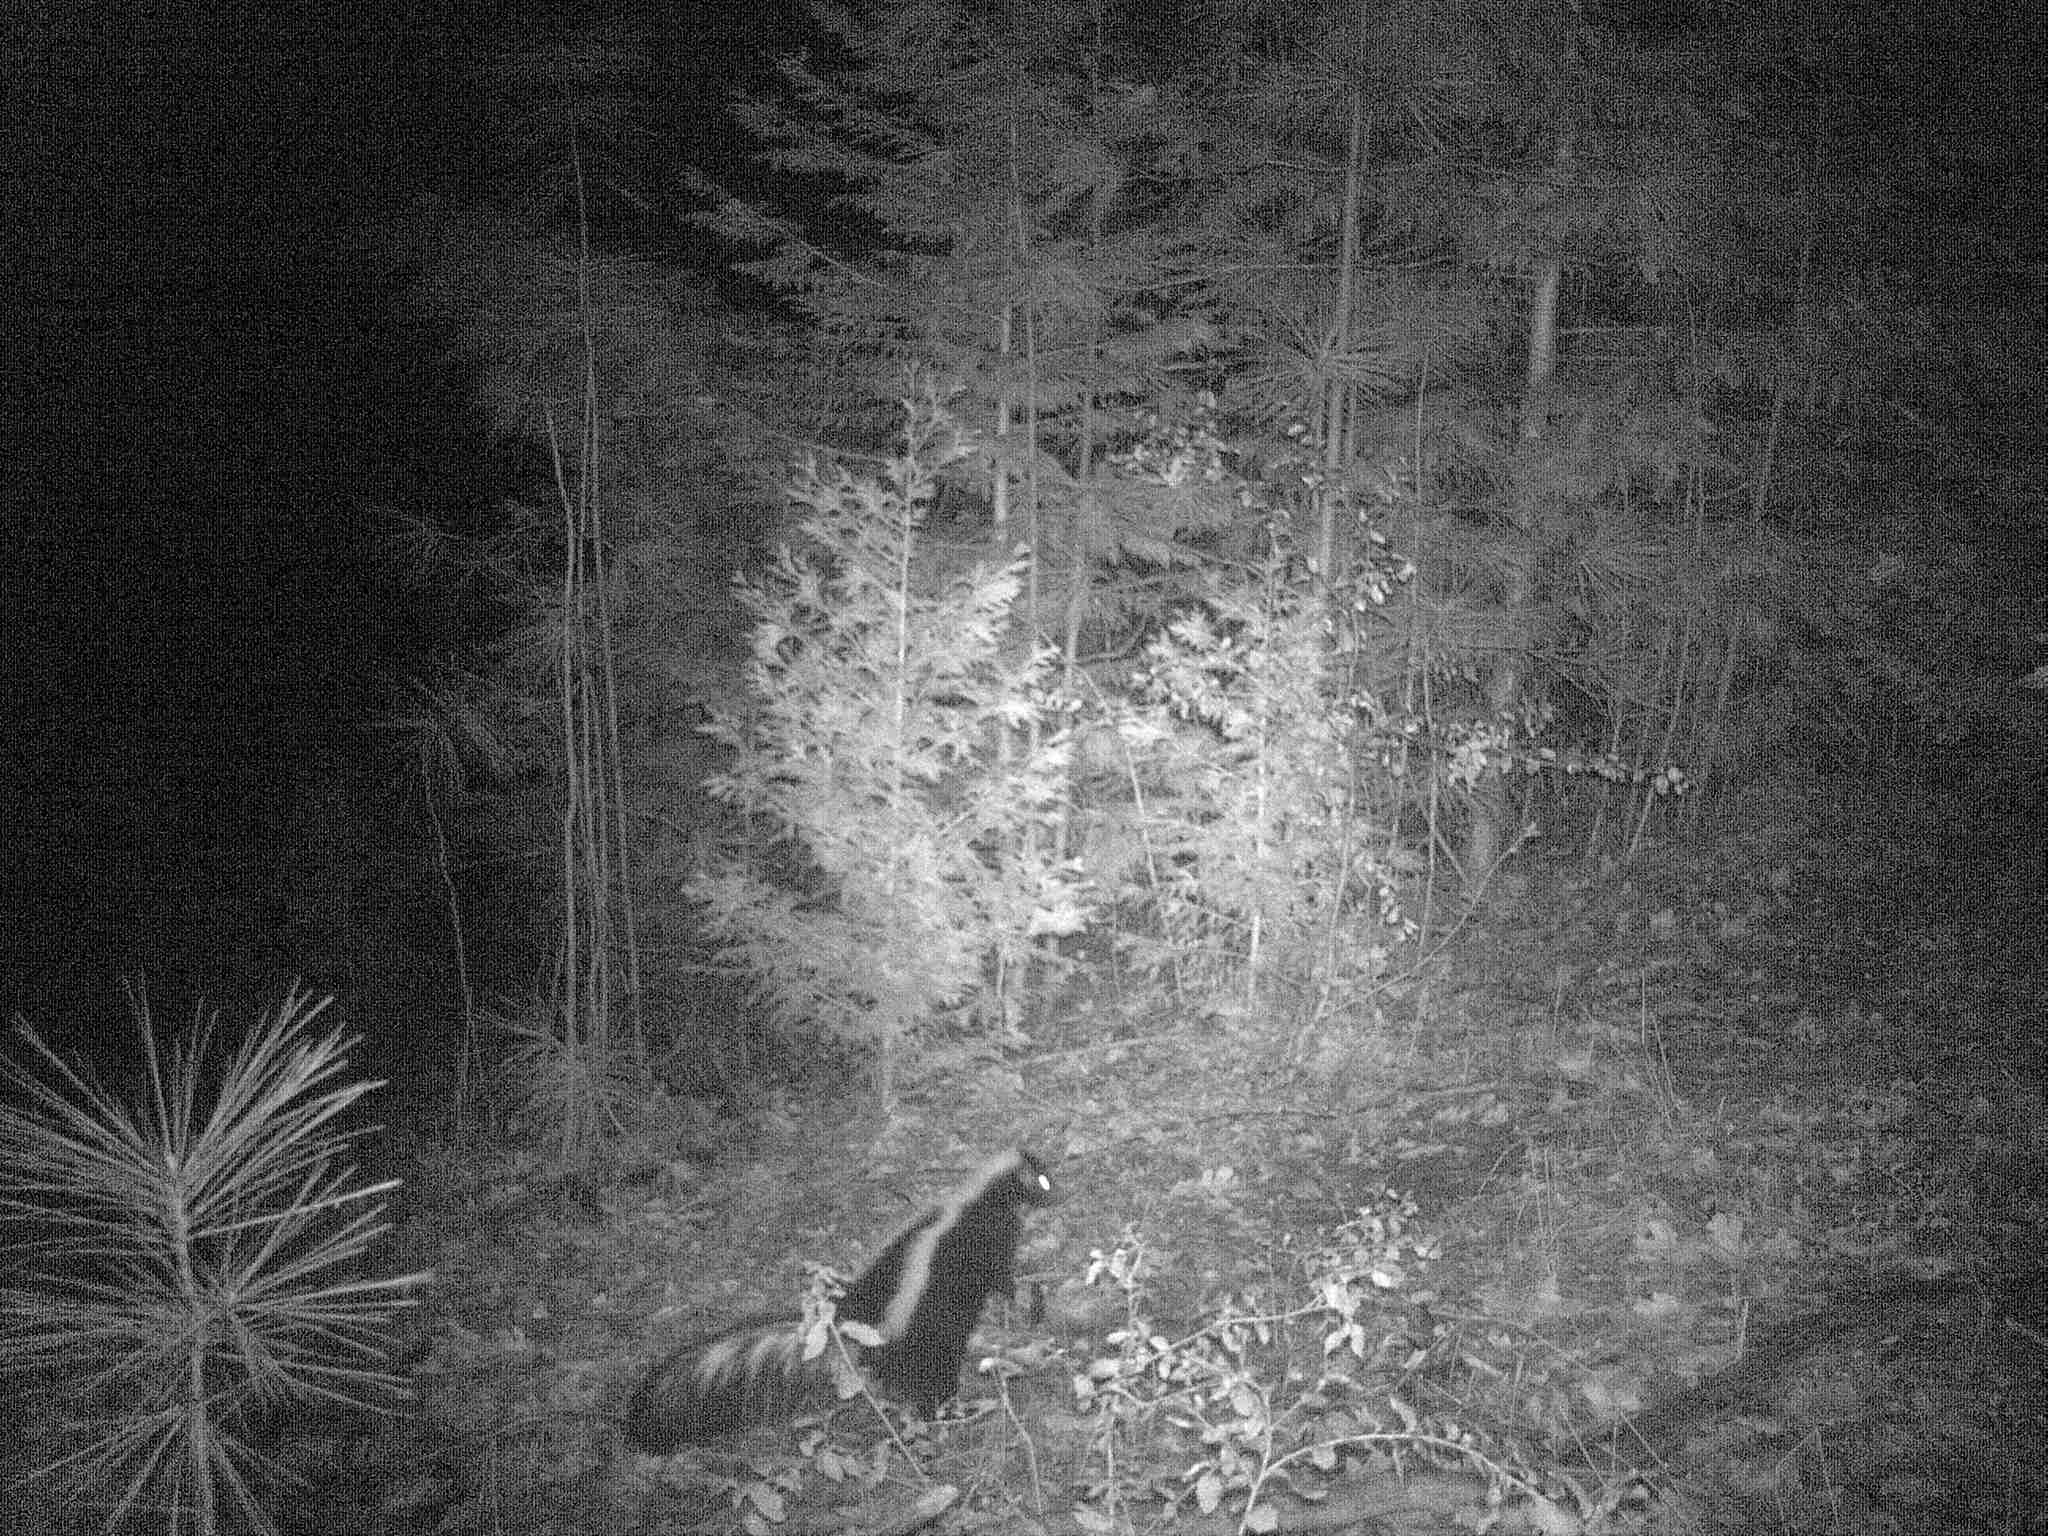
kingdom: Animalia
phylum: Chordata
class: Mammalia
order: Carnivora
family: Mephitidae
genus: Mephitis
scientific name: Mephitis mephitis
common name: Striped skunk
